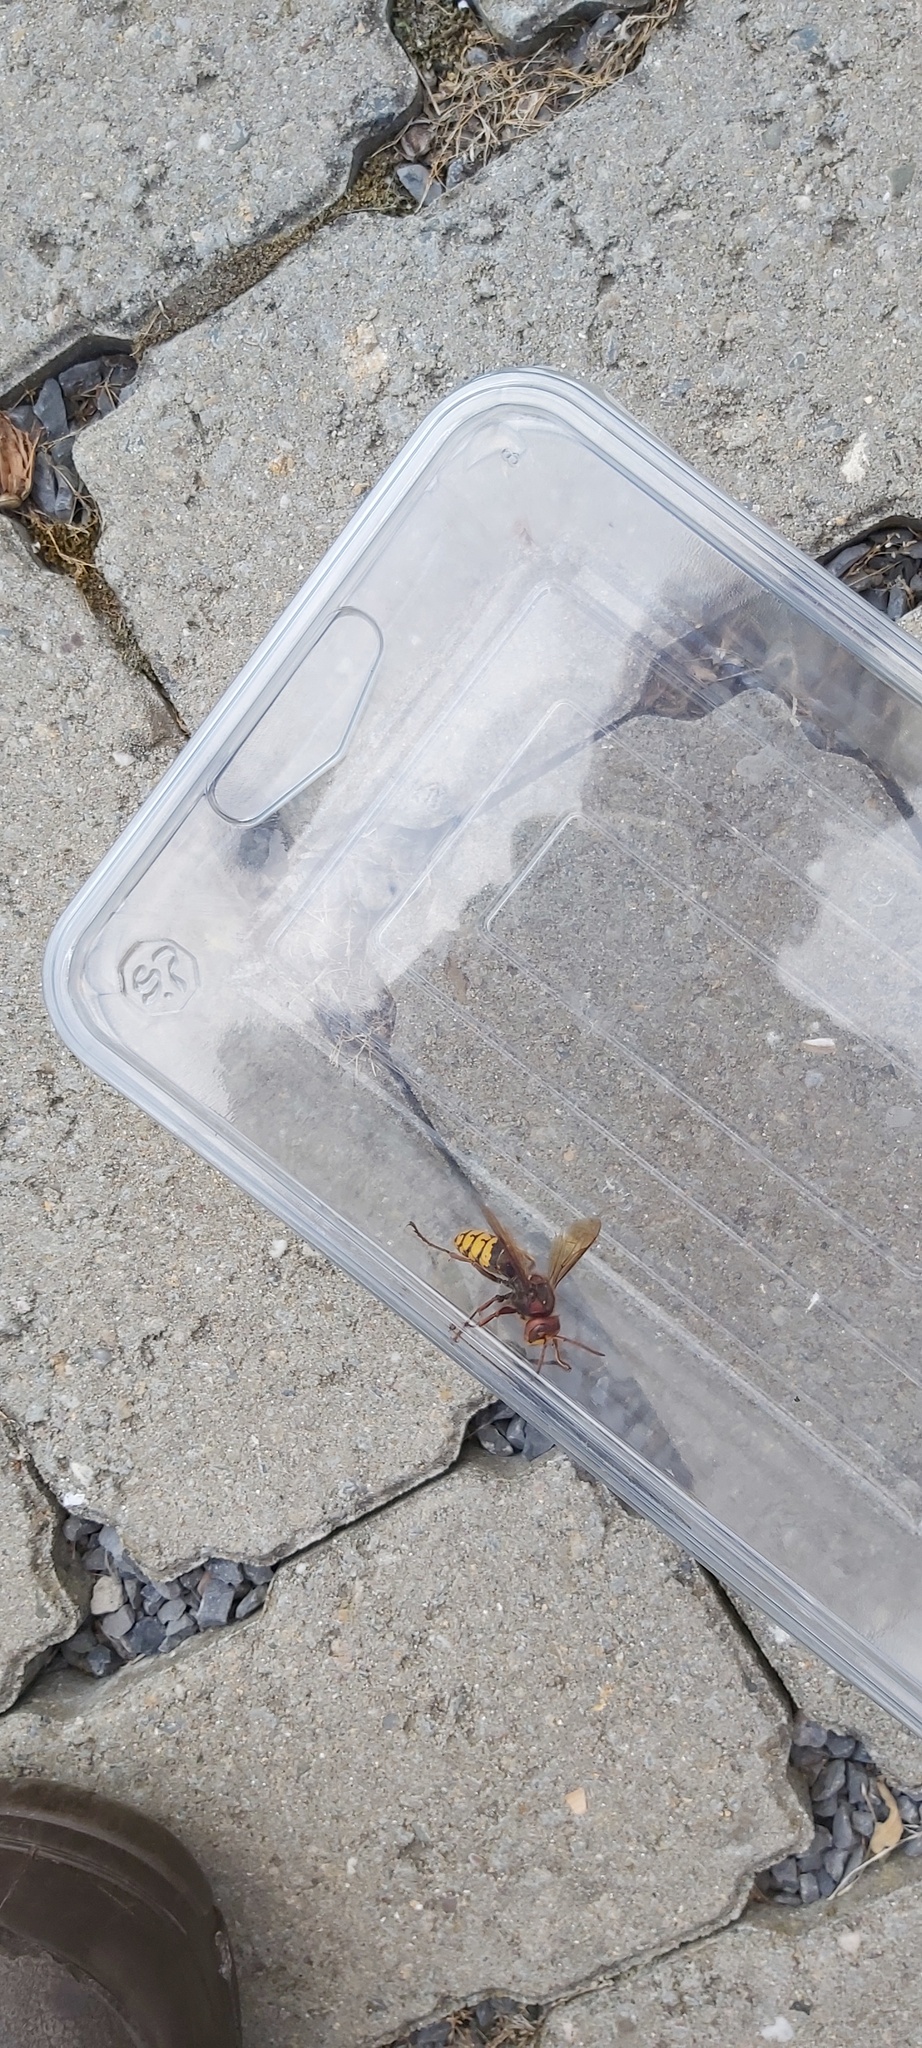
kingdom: Animalia
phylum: Arthropoda
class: Insecta
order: Hymenoptera
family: Vespidae
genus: Vespa
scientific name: Vespa crabro
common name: Hornet
